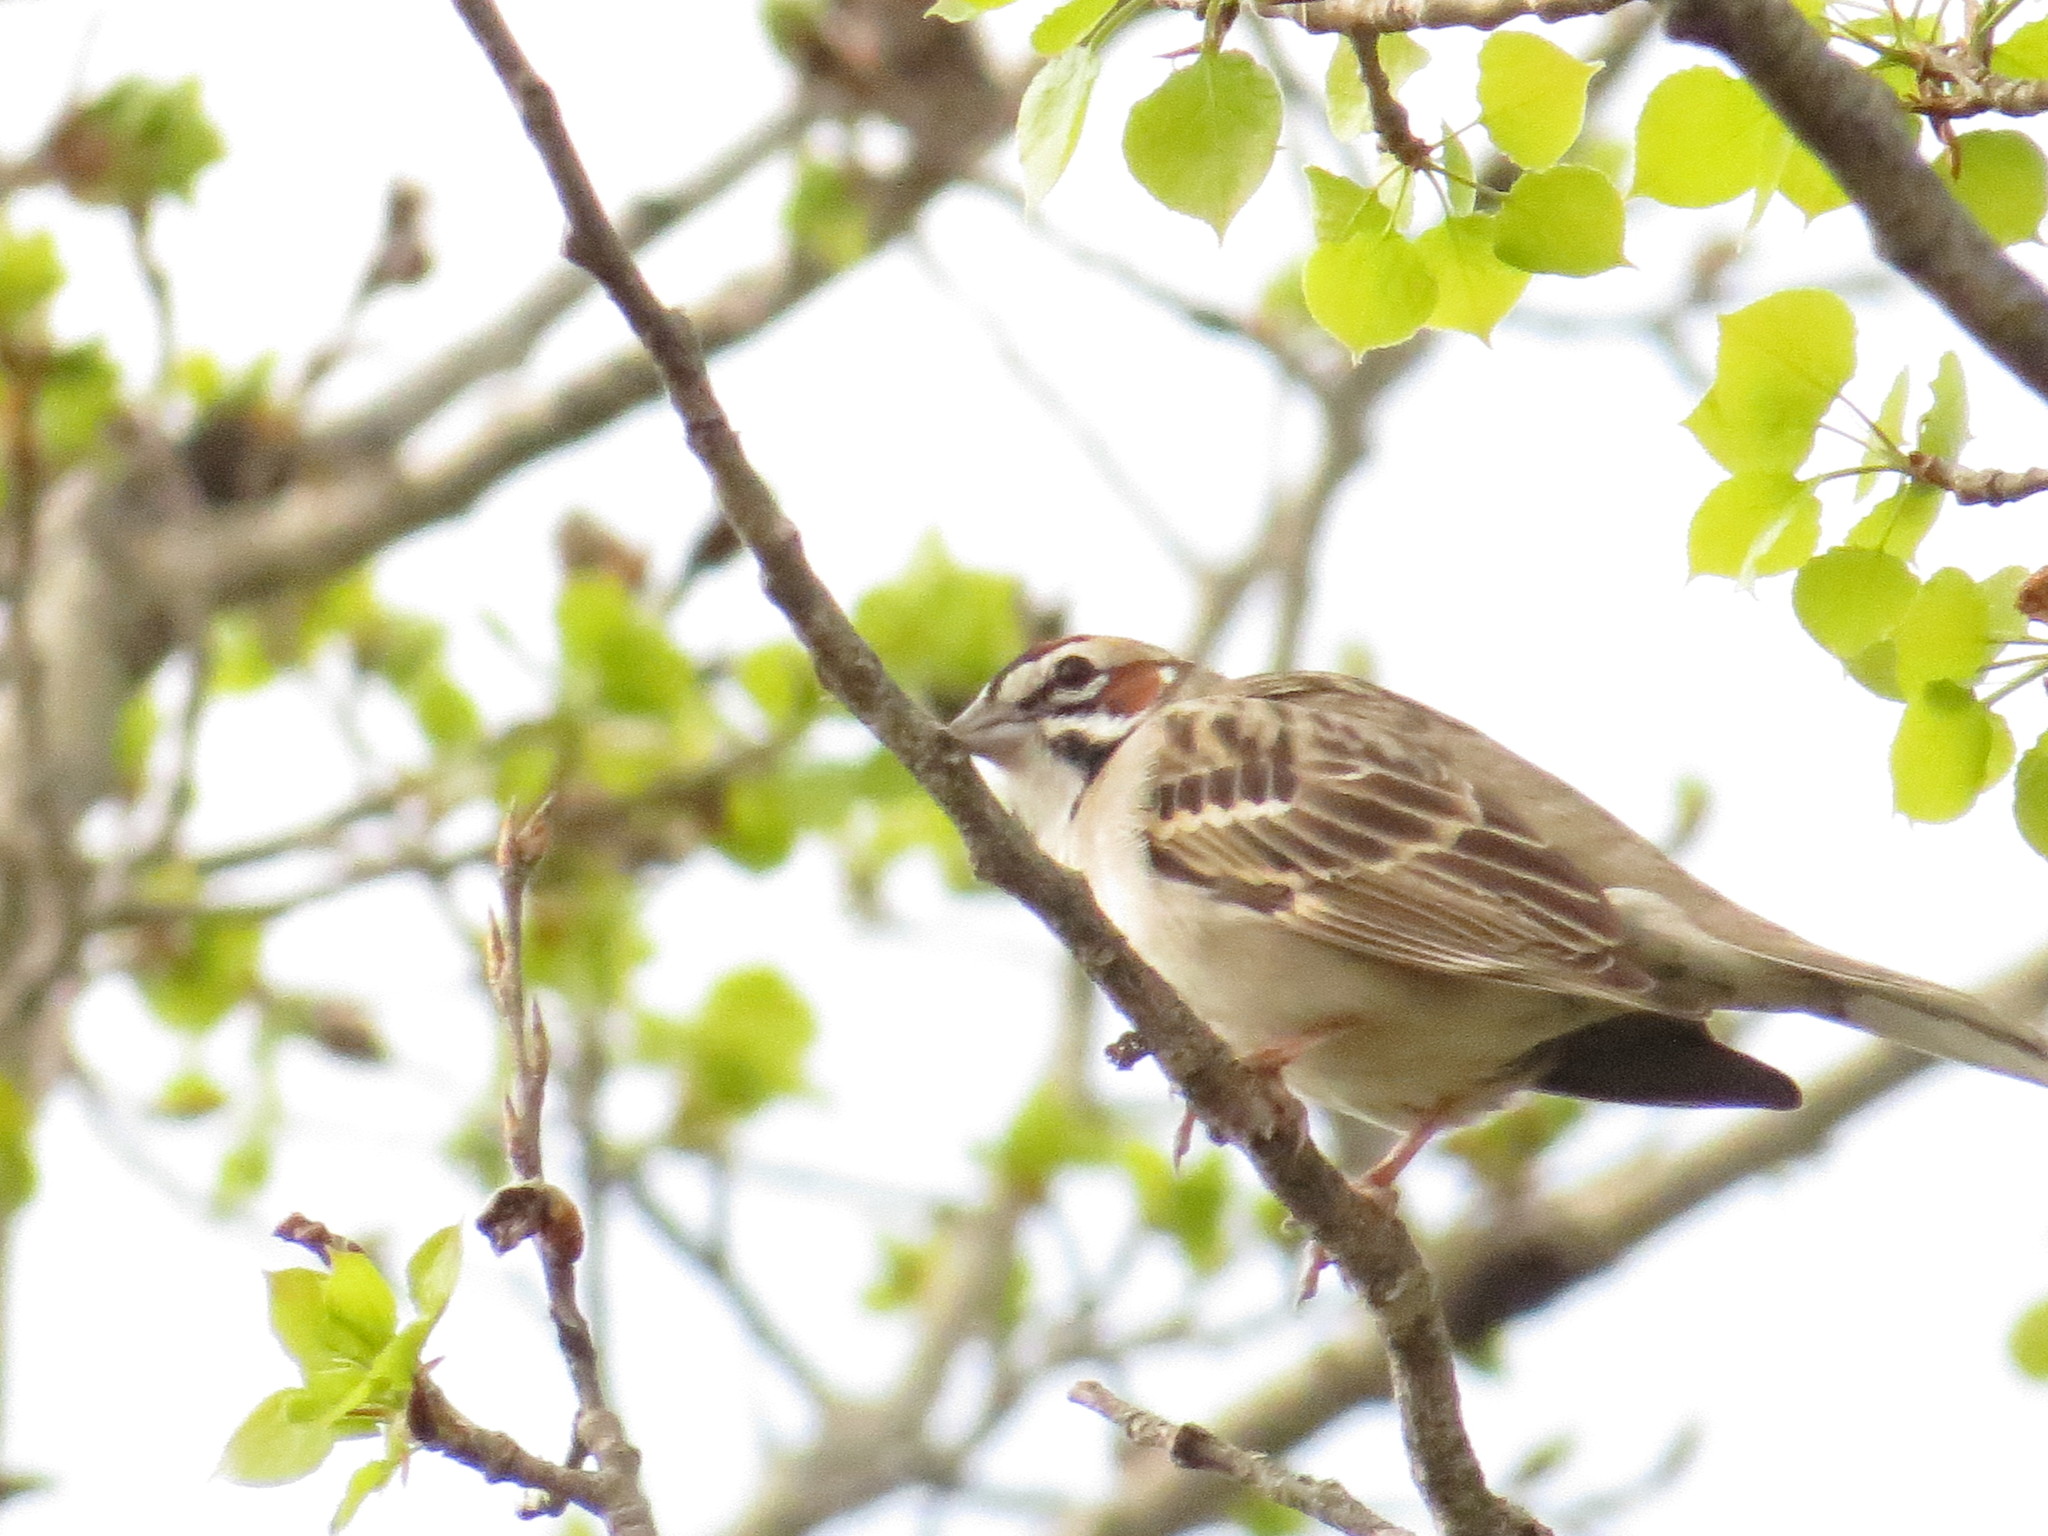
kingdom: Animalia
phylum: Chordata
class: Aves
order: Passeriformes
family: Passerellidae
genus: Chondestes
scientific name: Chondestes grammacus
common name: Lark sparrow
